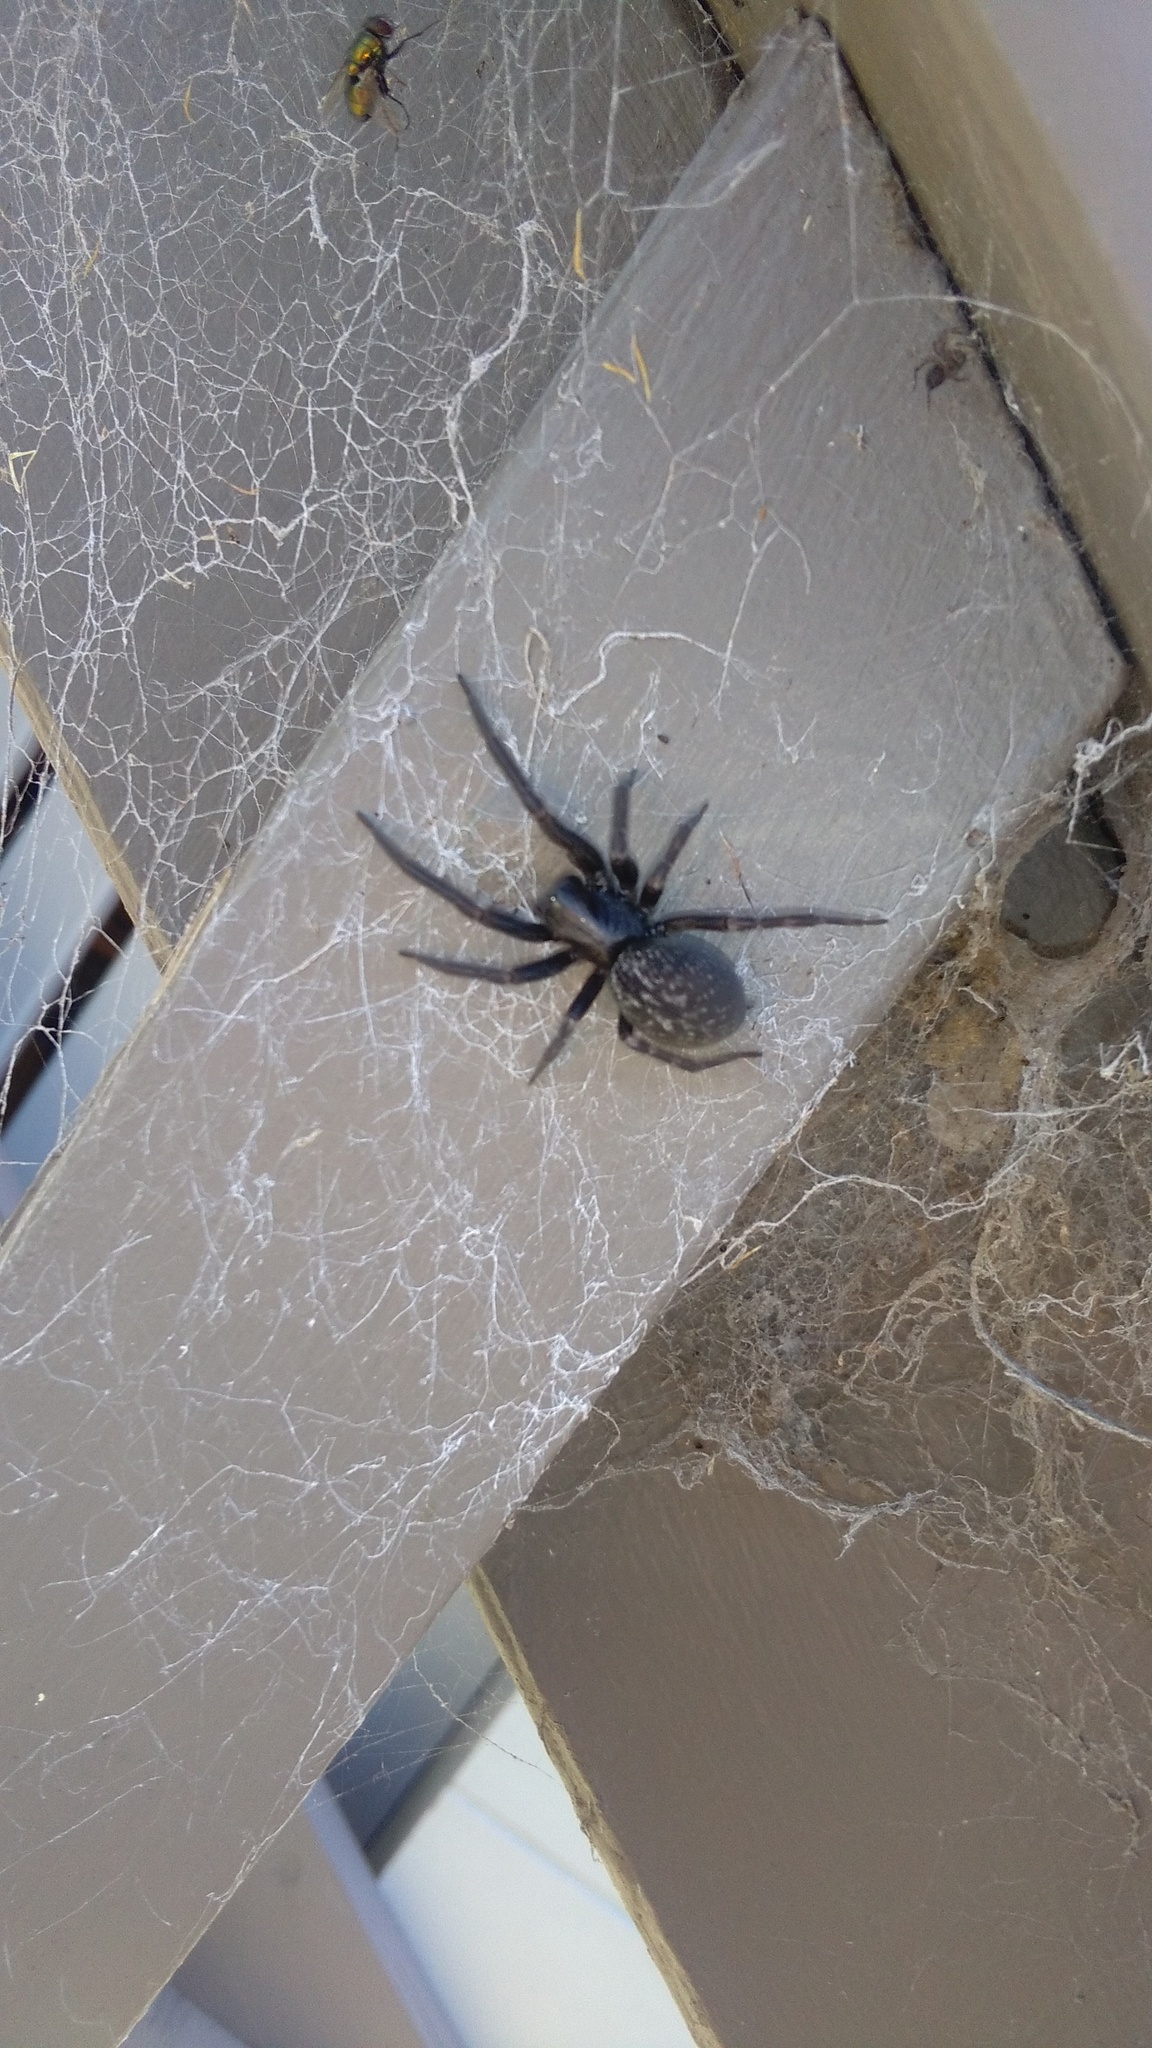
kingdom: Animalia
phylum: Arthropoda
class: Arachnida
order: Araneae
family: Desidae
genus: Badumna
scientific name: Badumna longinqua
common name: Gray house spider
